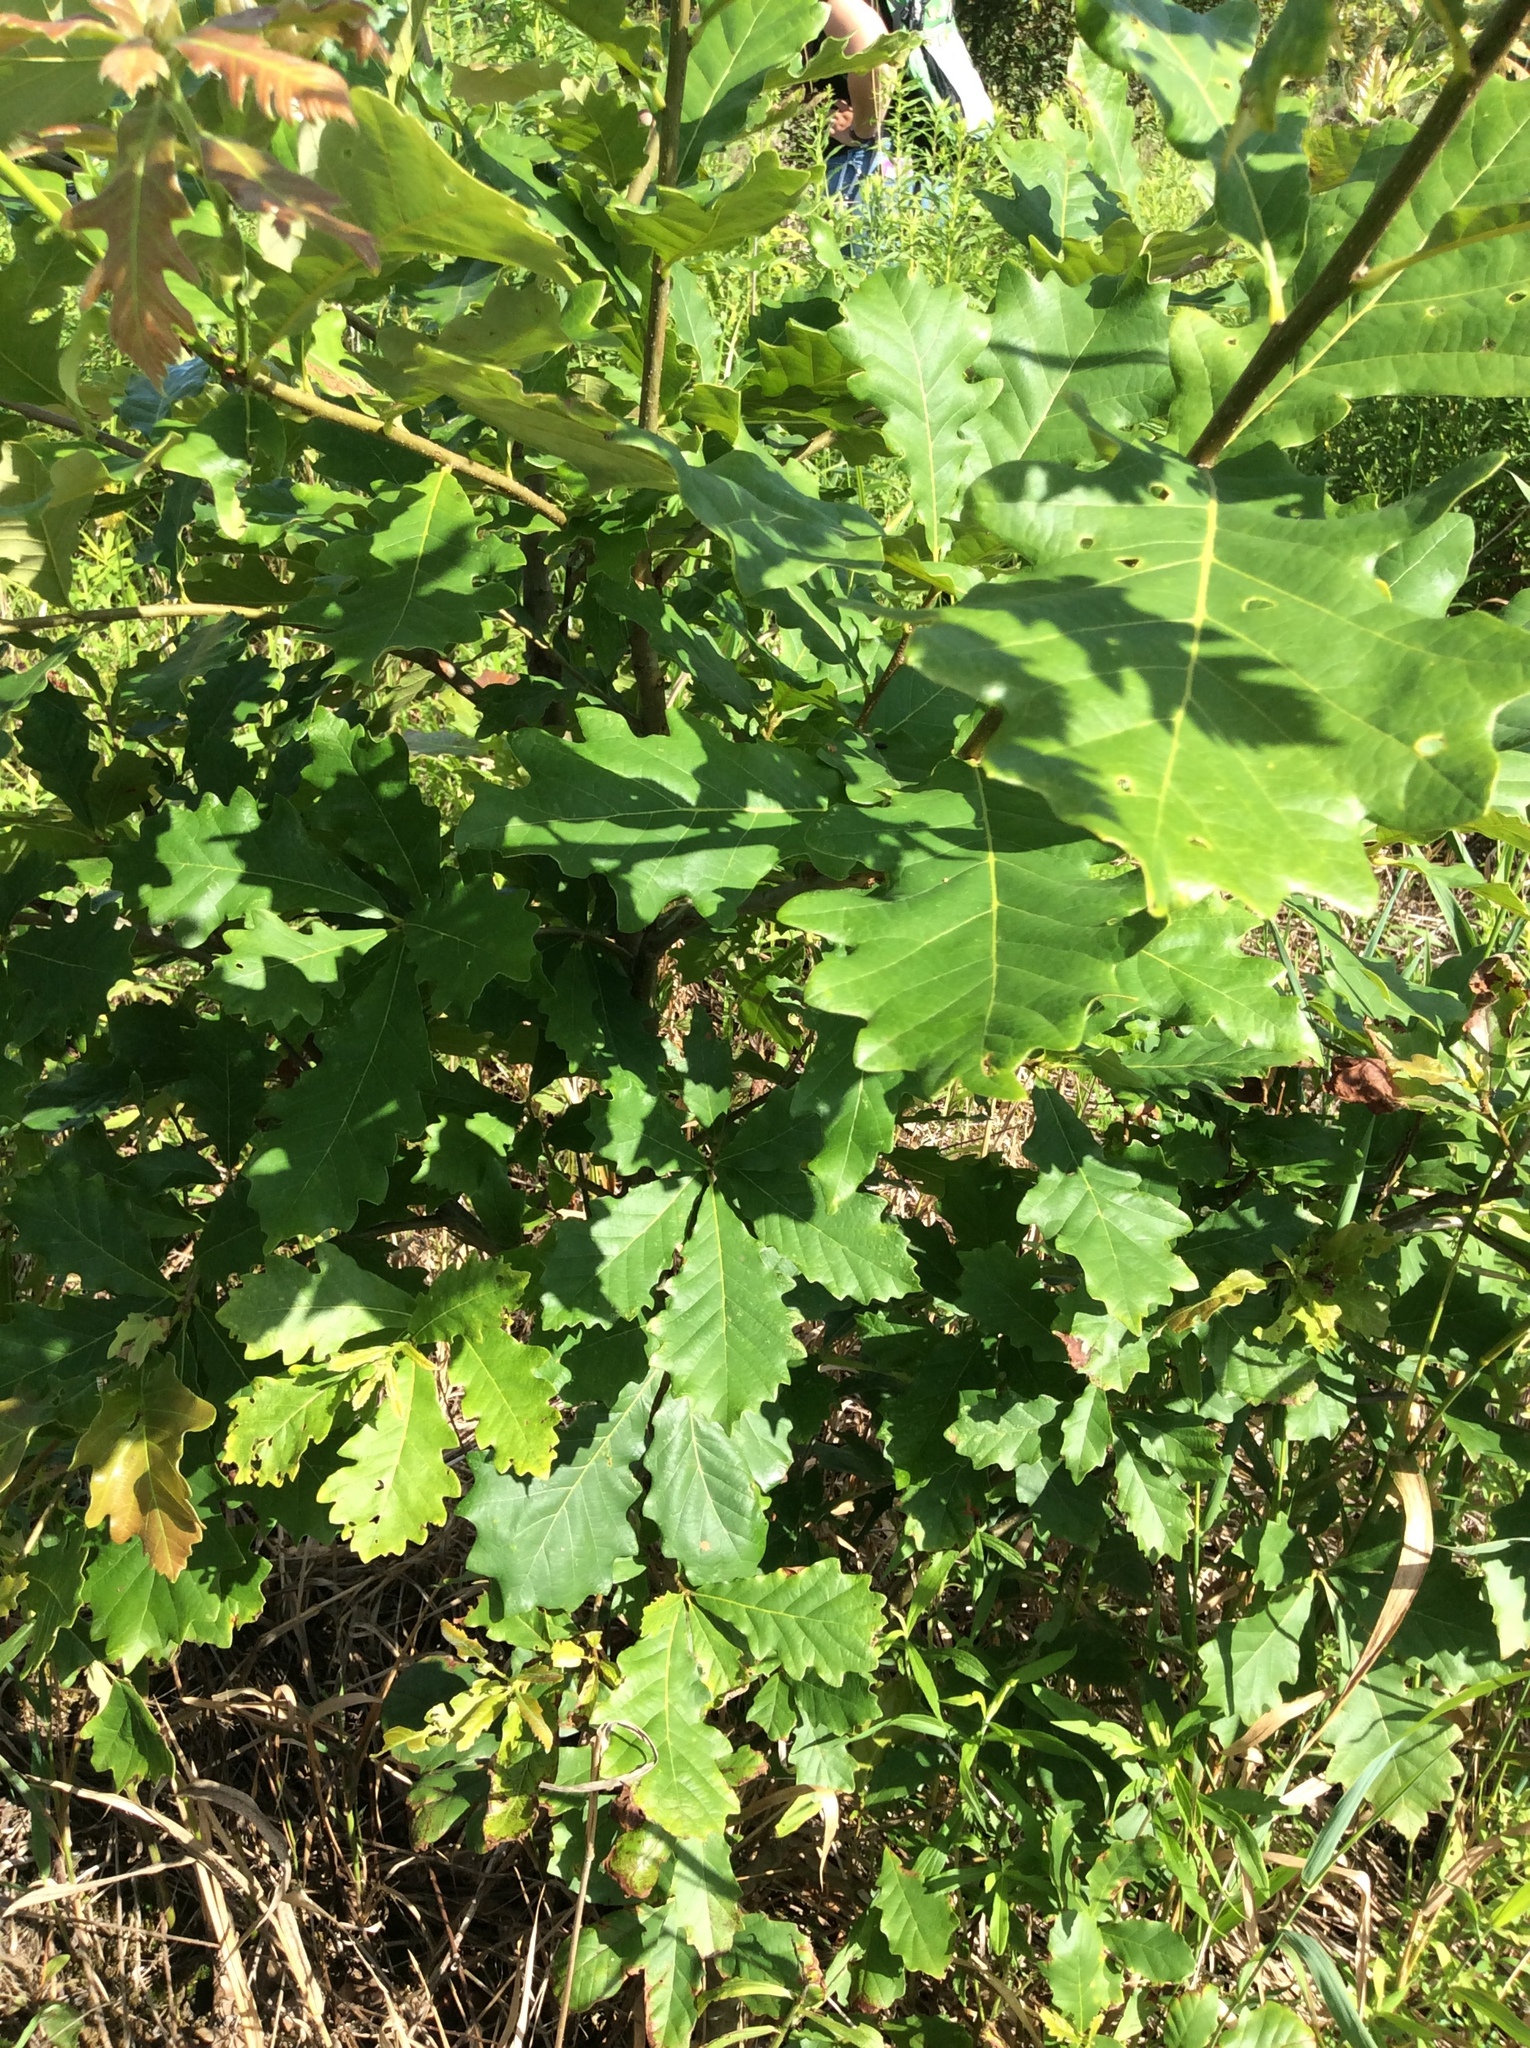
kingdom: Plantae
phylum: Tracheophyta
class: Magnoliopsida
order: Fagales
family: Fagaceae
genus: Quercus
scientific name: Quercus bicolor
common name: Swamp white oak
